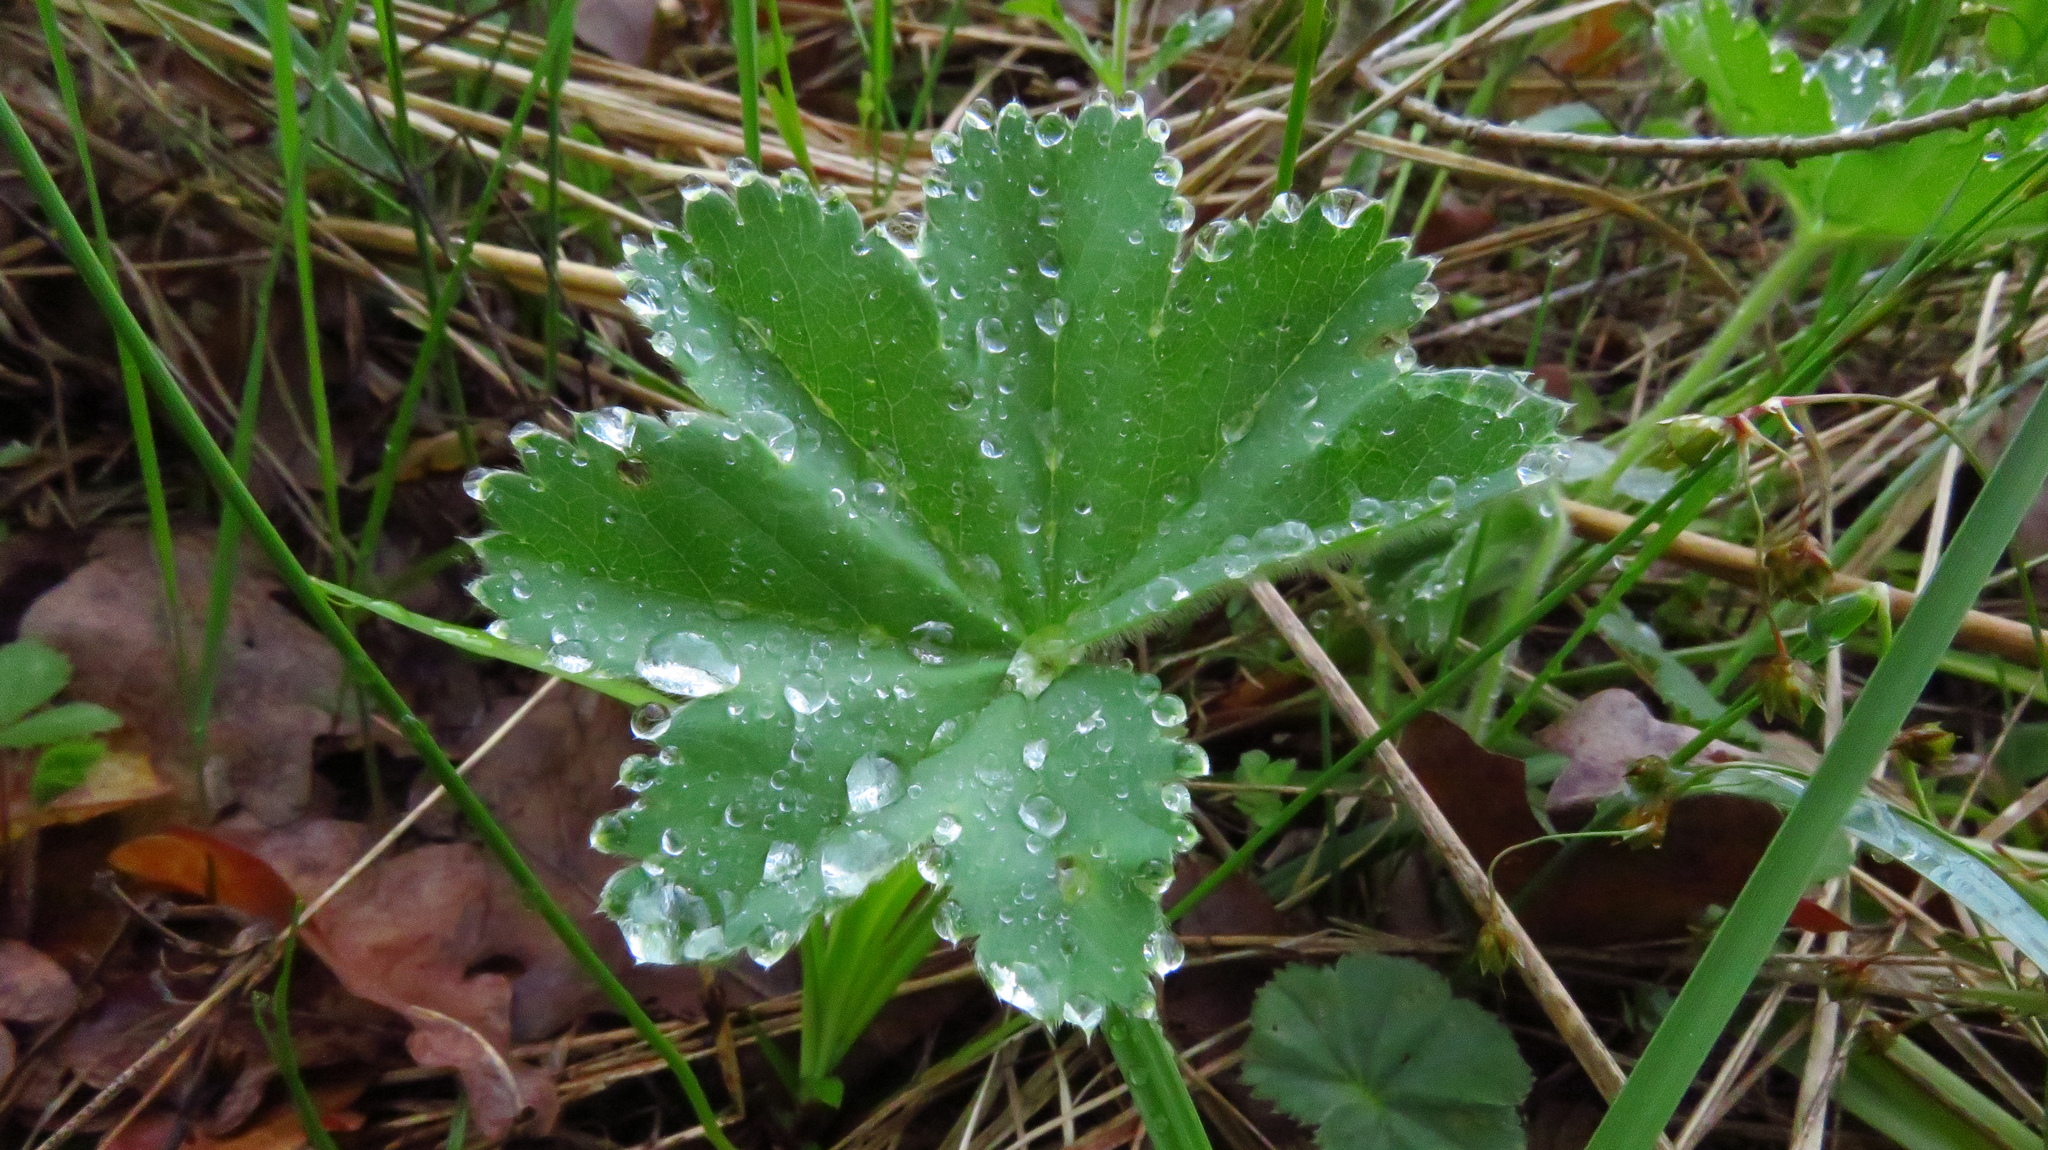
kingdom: Plantae
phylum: Tracheophyta
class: Magnoliopsida
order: Rosales
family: Rosaceae
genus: Alchemilla
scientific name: Alchemilla
